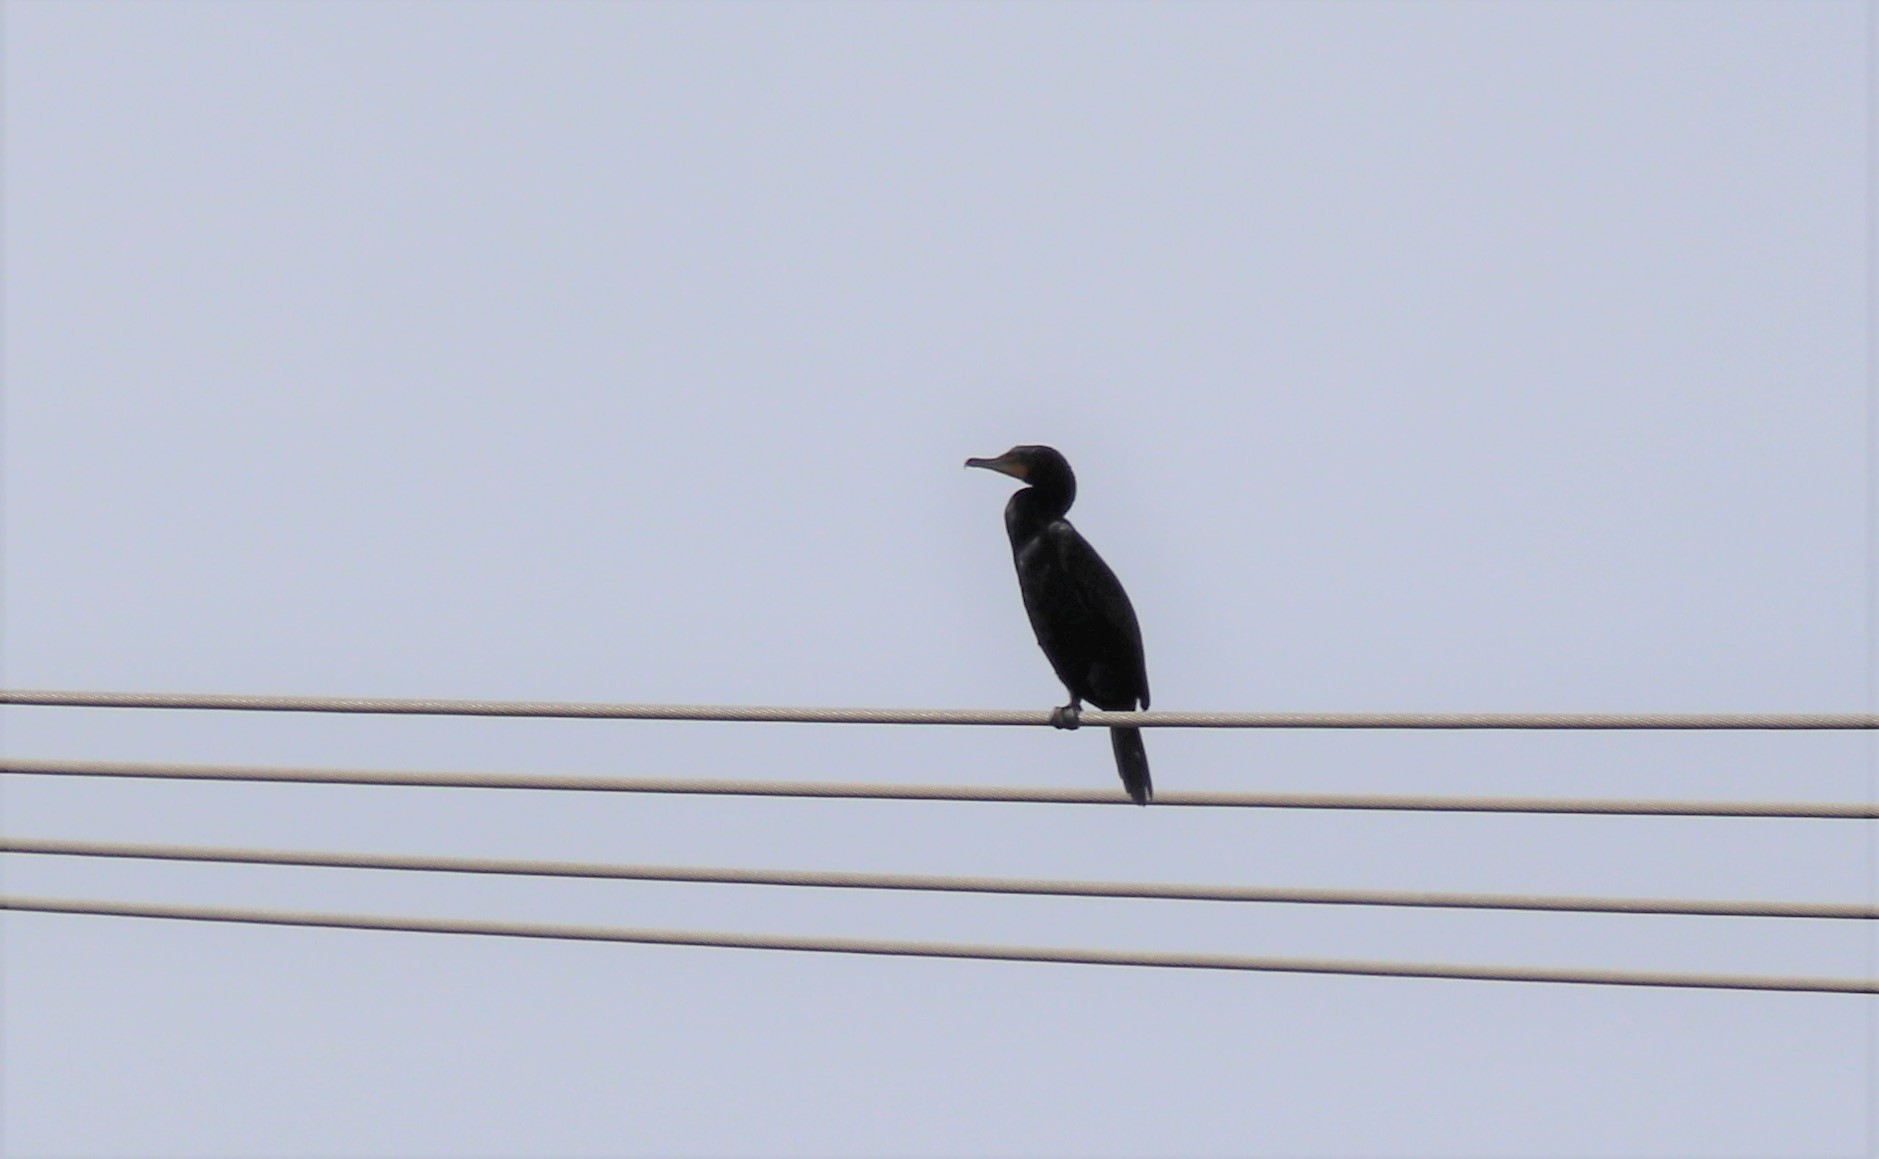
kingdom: Animalia
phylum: Chordata
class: Aves
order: Suliformes
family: Phalacrocoracidae
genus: Phalacrocorax
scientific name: Phalacrocorax auritus
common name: Double-crested cormorant
